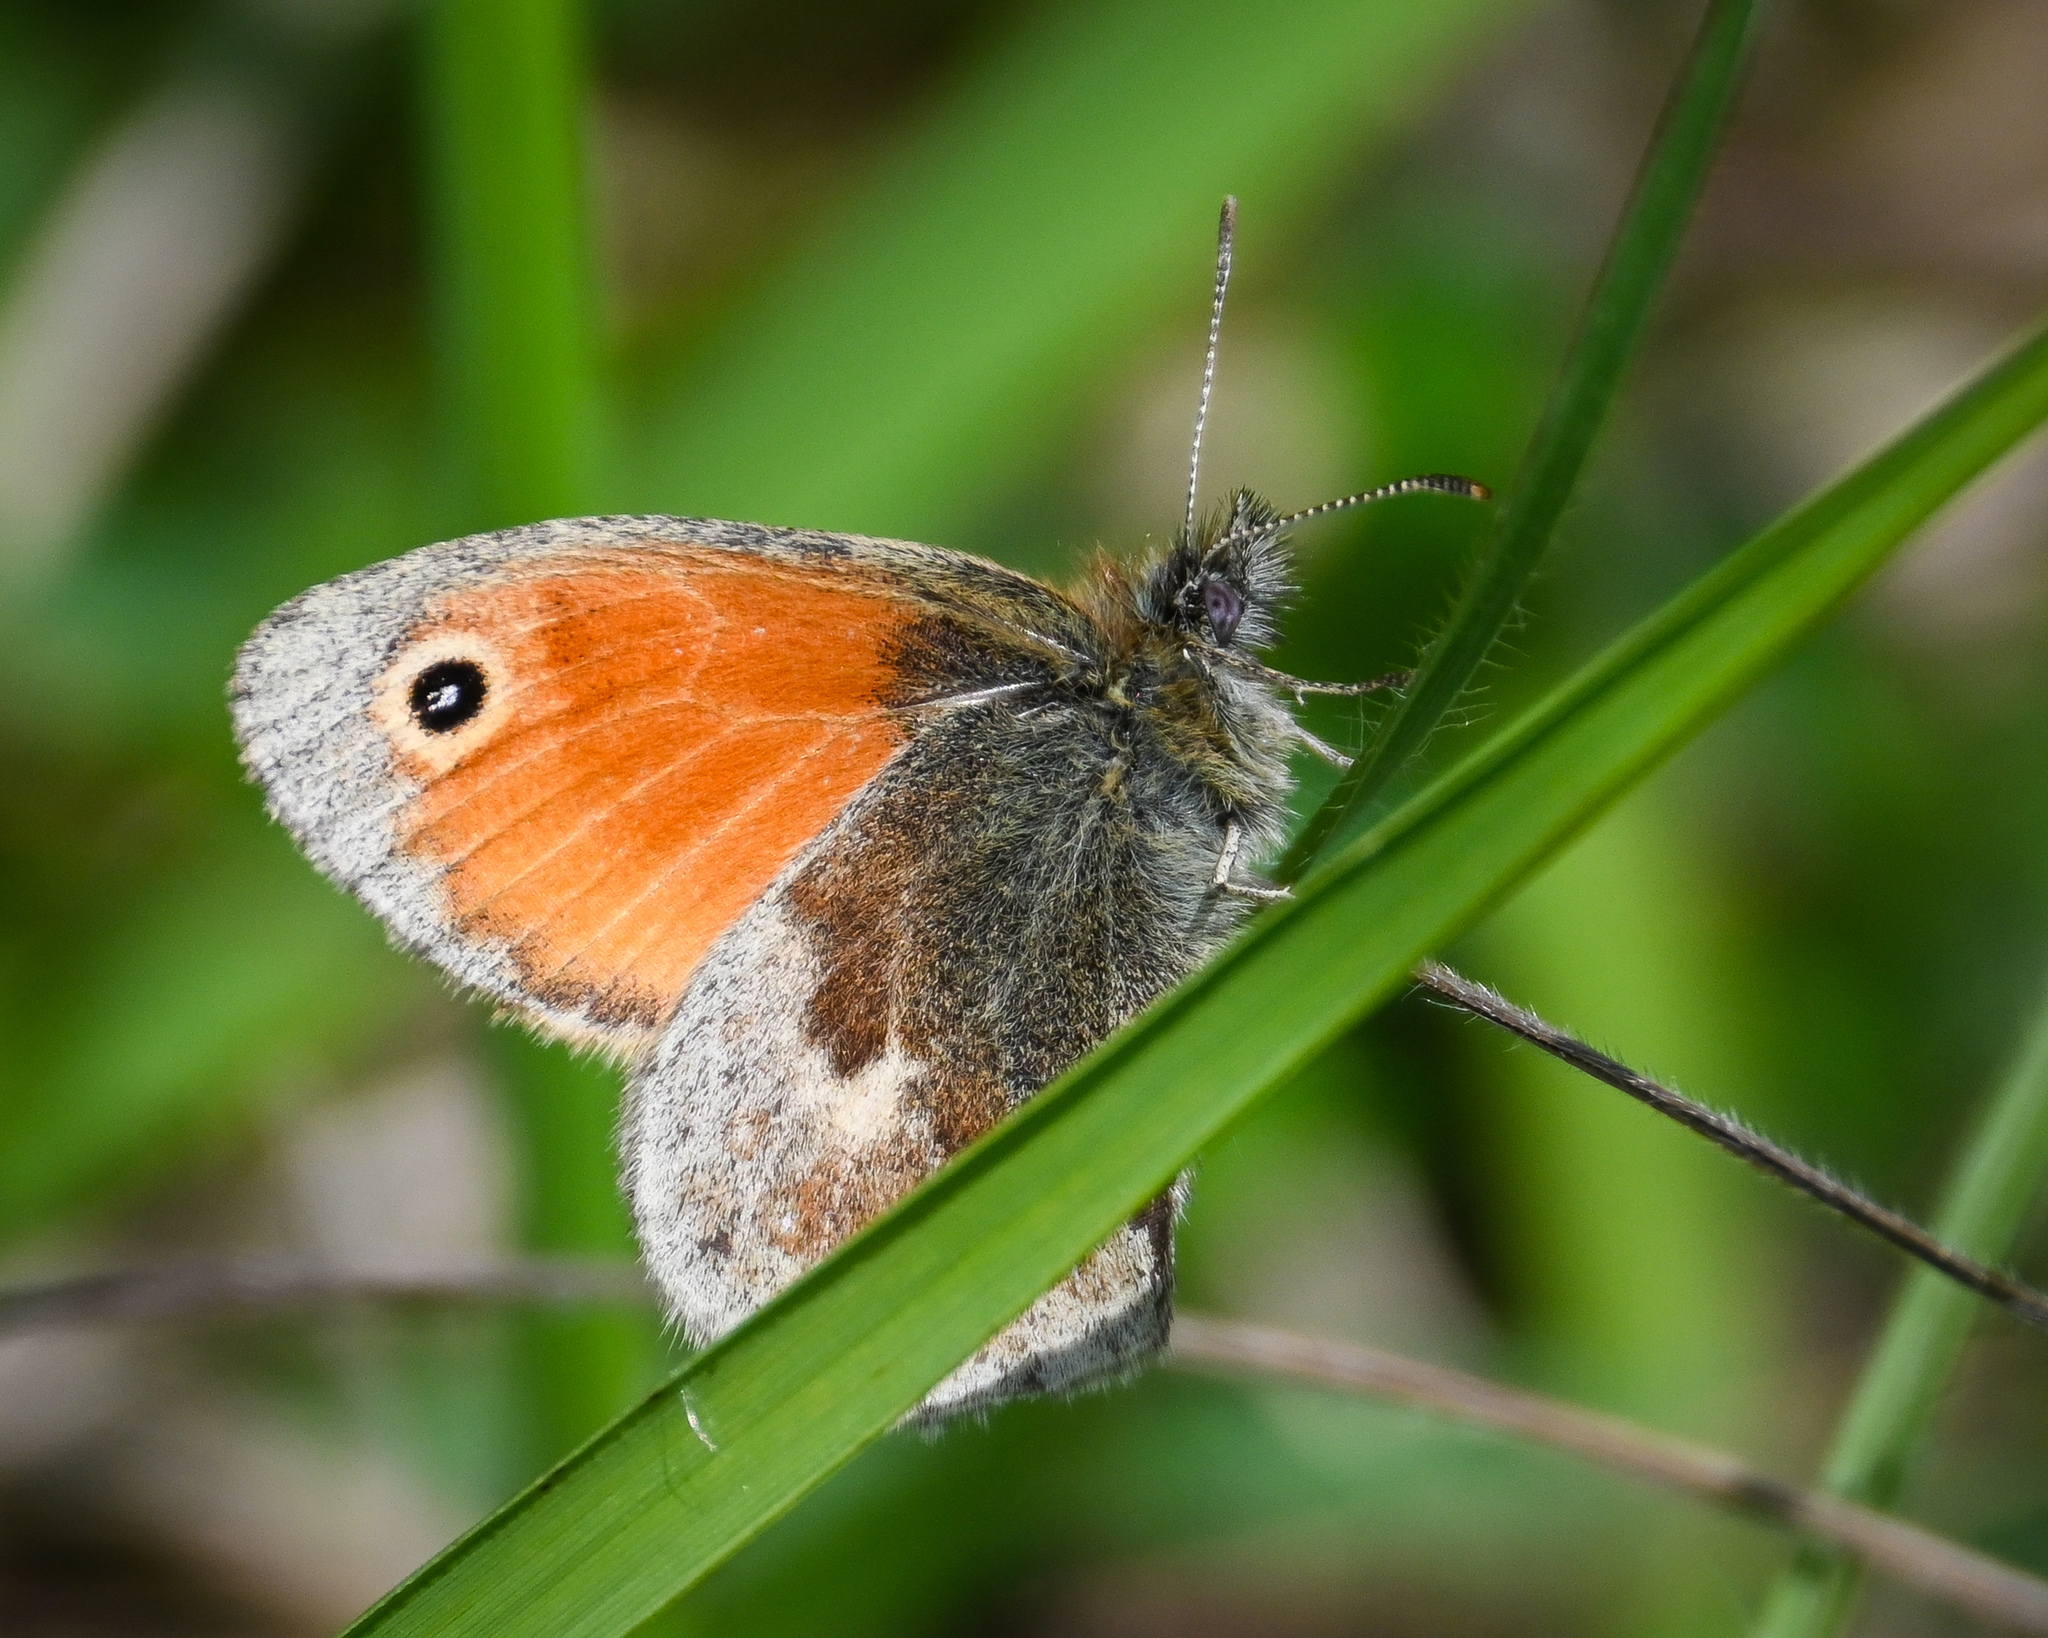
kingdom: Animalia
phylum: Arthropoda
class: Insecta
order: Lepidoptera
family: Nymphalidae
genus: Coenonympha
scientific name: Coenonympha pamphilus
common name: Small heath
